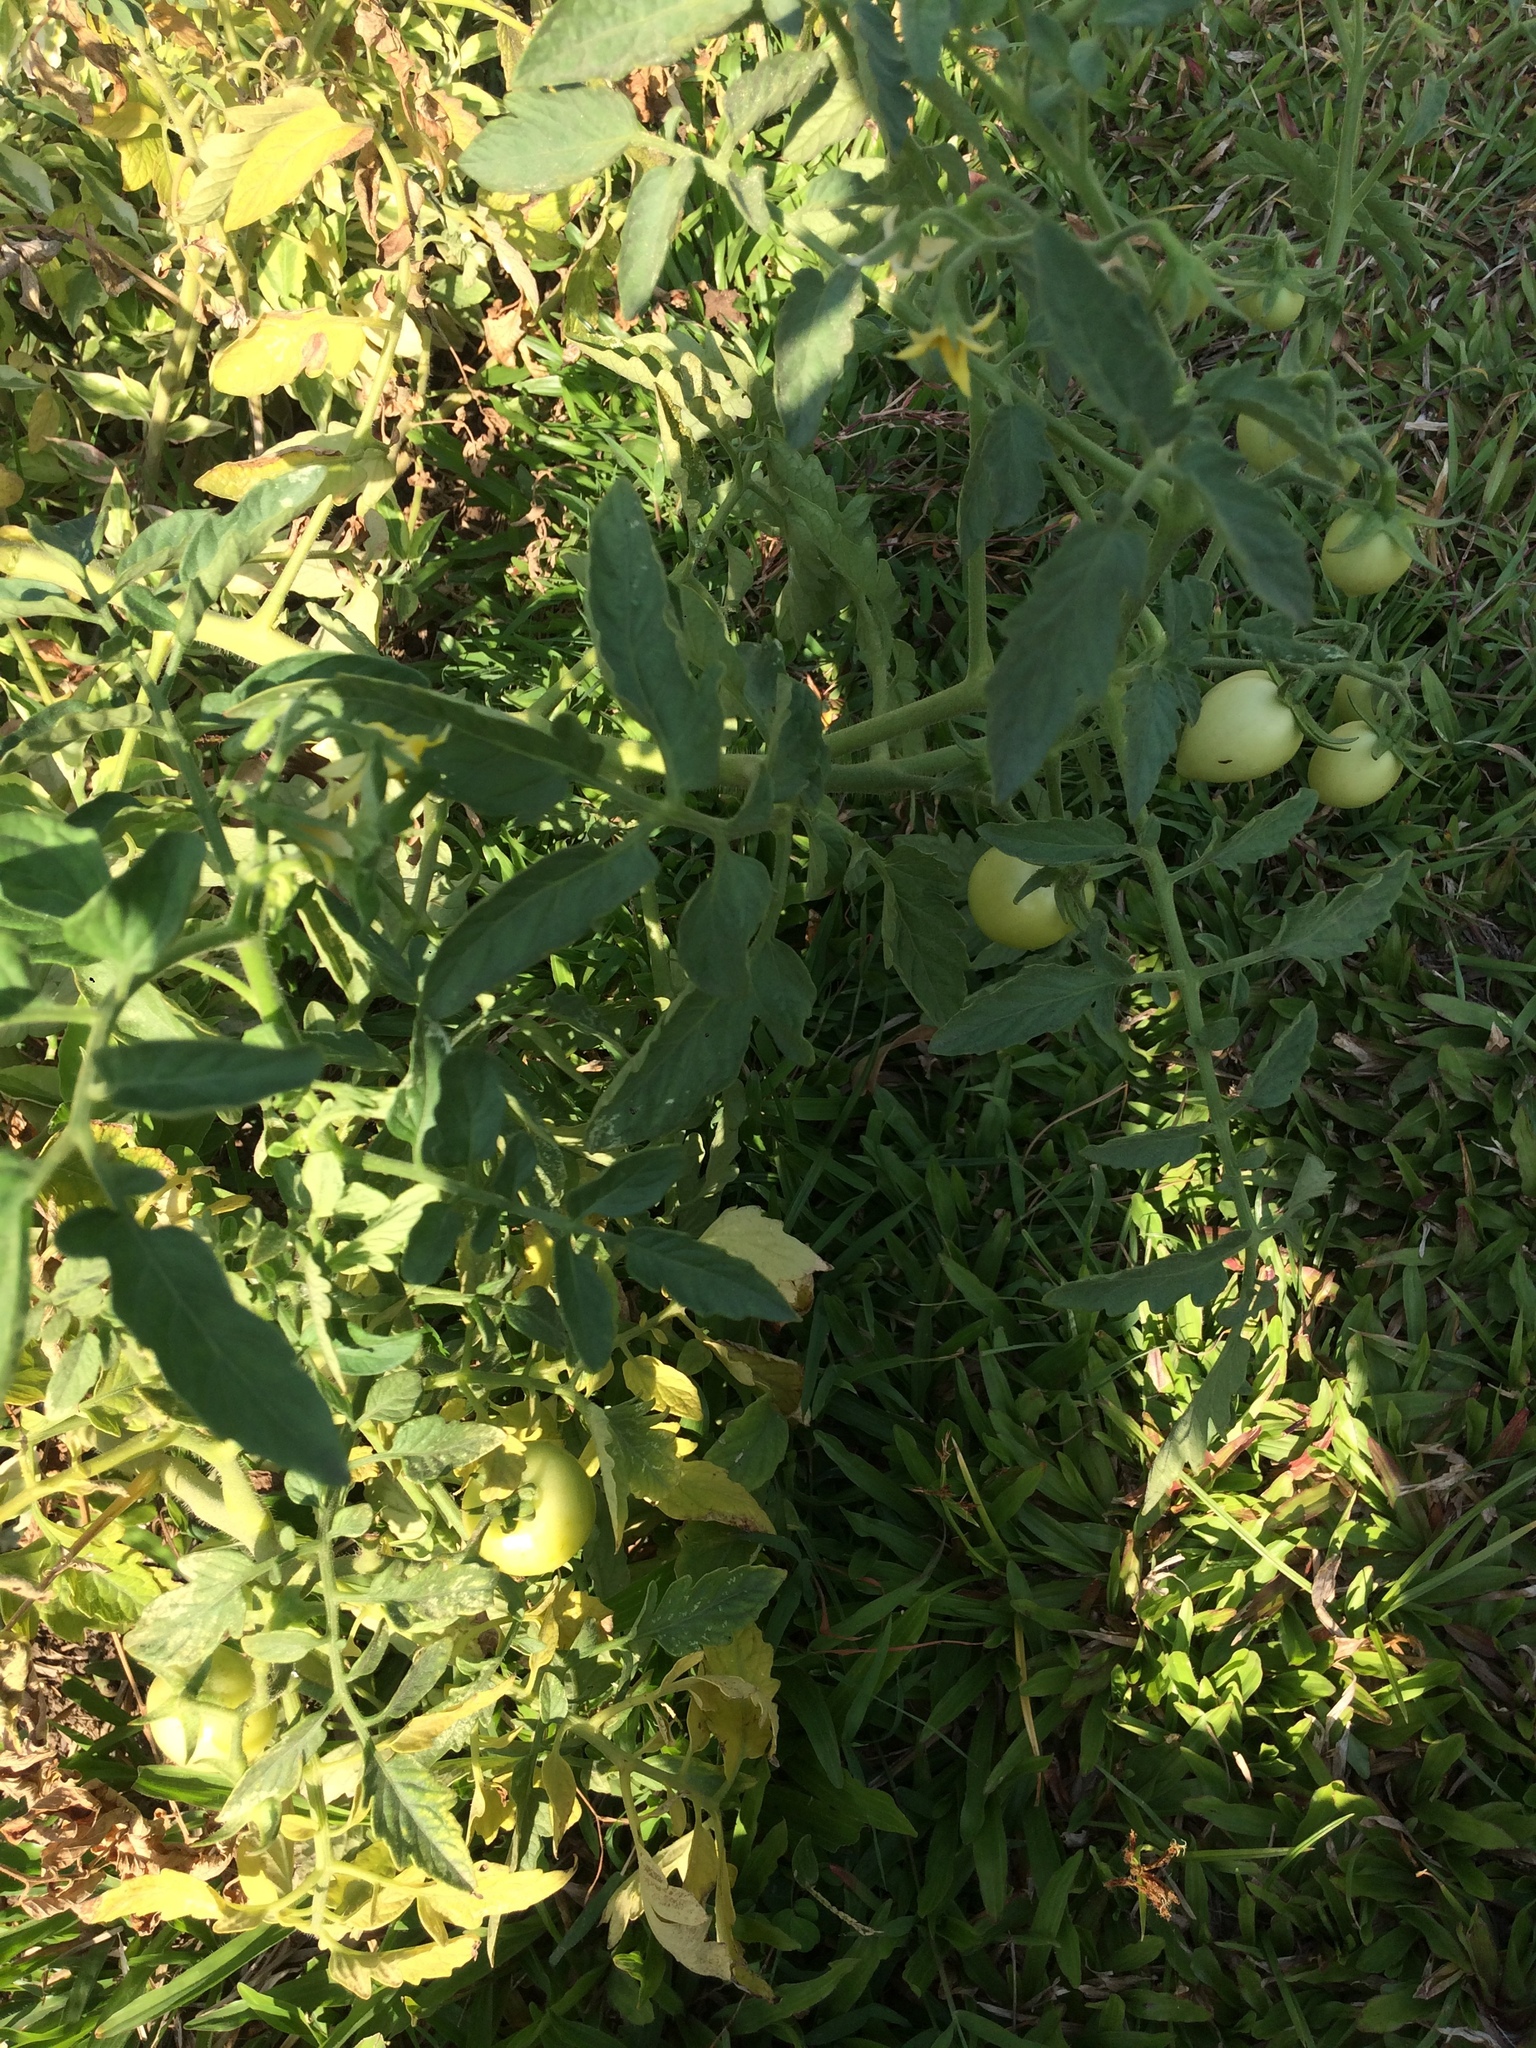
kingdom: Plantae
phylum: Tracheophyta
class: Magnoliopsida
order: Solanales
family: Solanaceae
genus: Solanum
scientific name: Solanum lycopersicum
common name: Garden tomato
